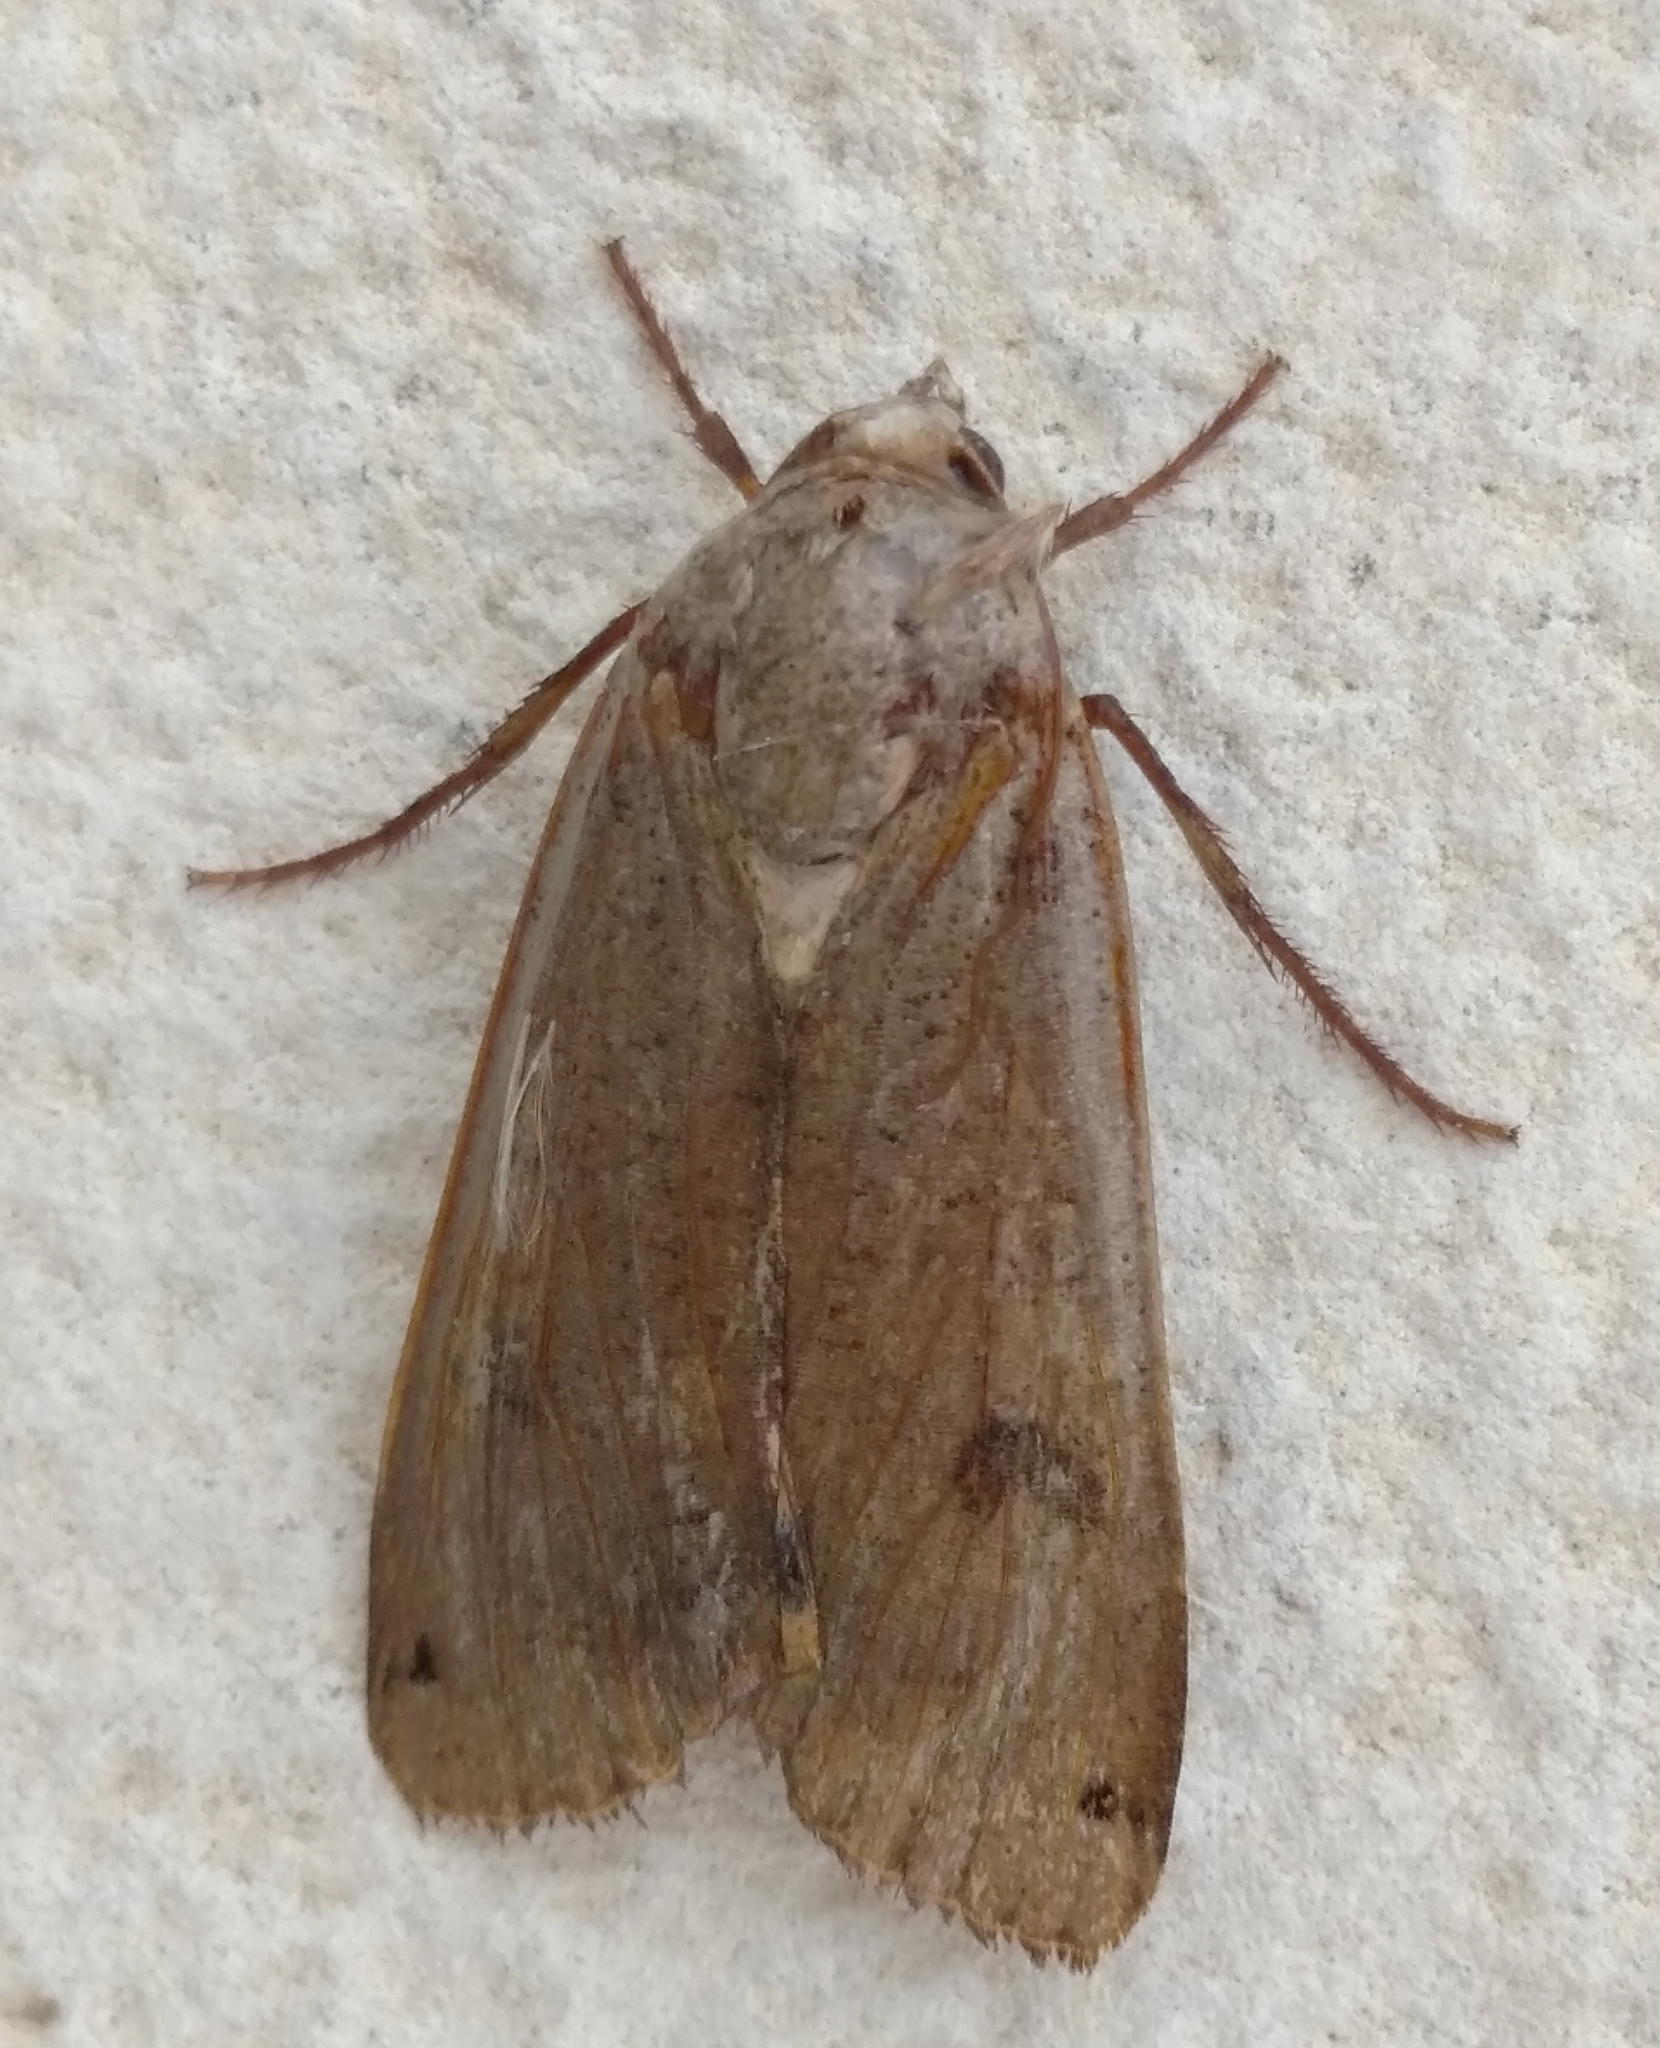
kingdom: Animalia
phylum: Arthropoda
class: Insecta
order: Lepidoptera
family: Noctuidae
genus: Noctua
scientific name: Noctua pronuba
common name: Large yellow underwing
